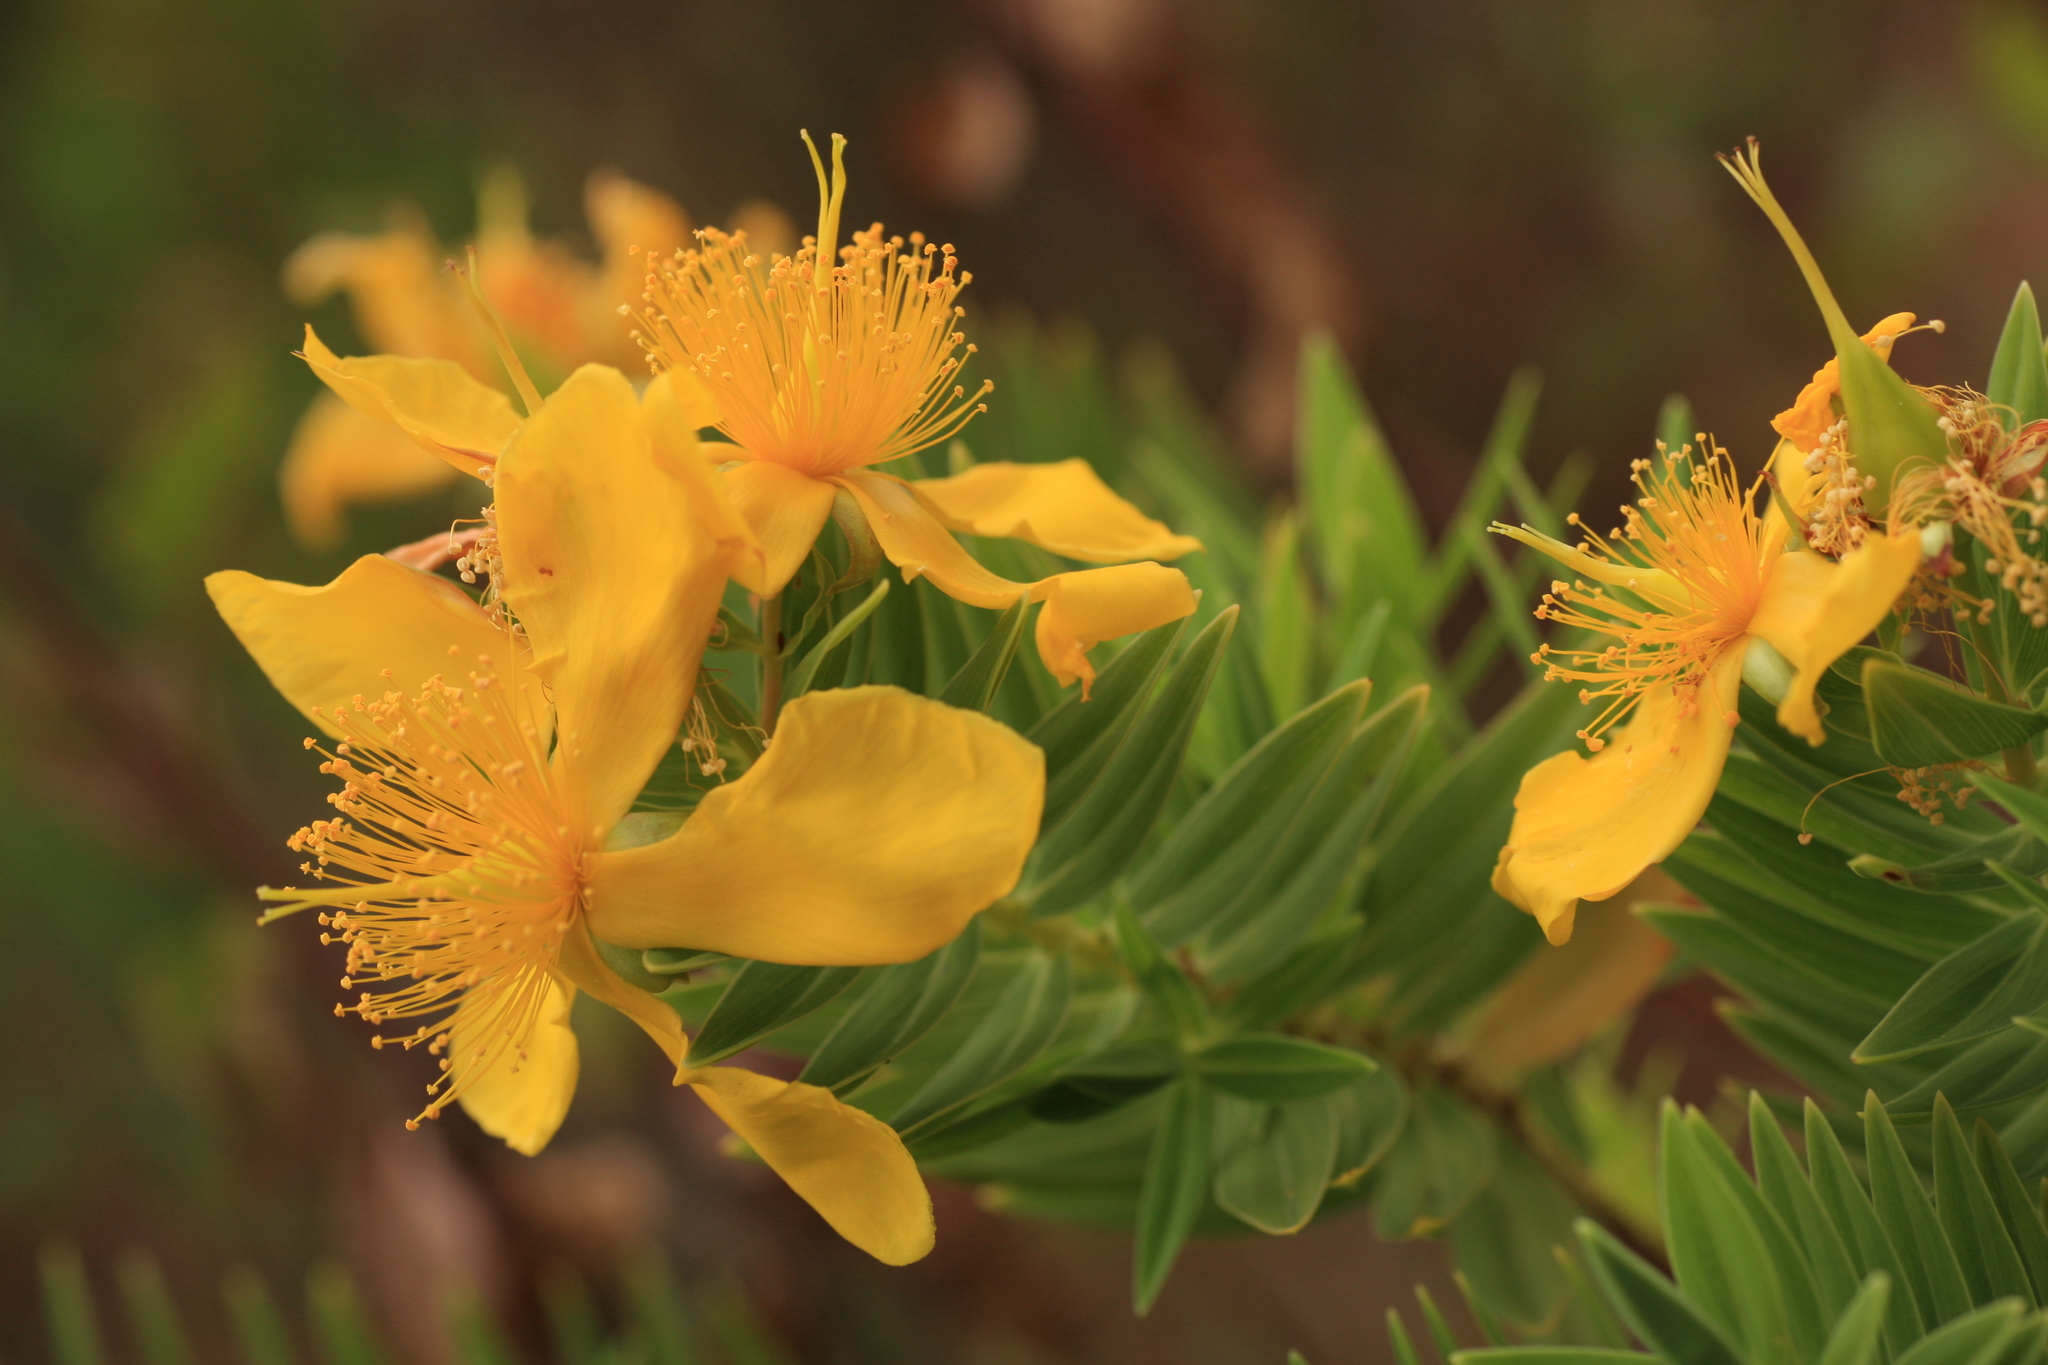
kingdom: Plantae
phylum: Tracheophyta
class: Magnoliopsida
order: Malpighiales
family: Hypericaceae
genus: Hypericum
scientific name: Hypericum mysurense
